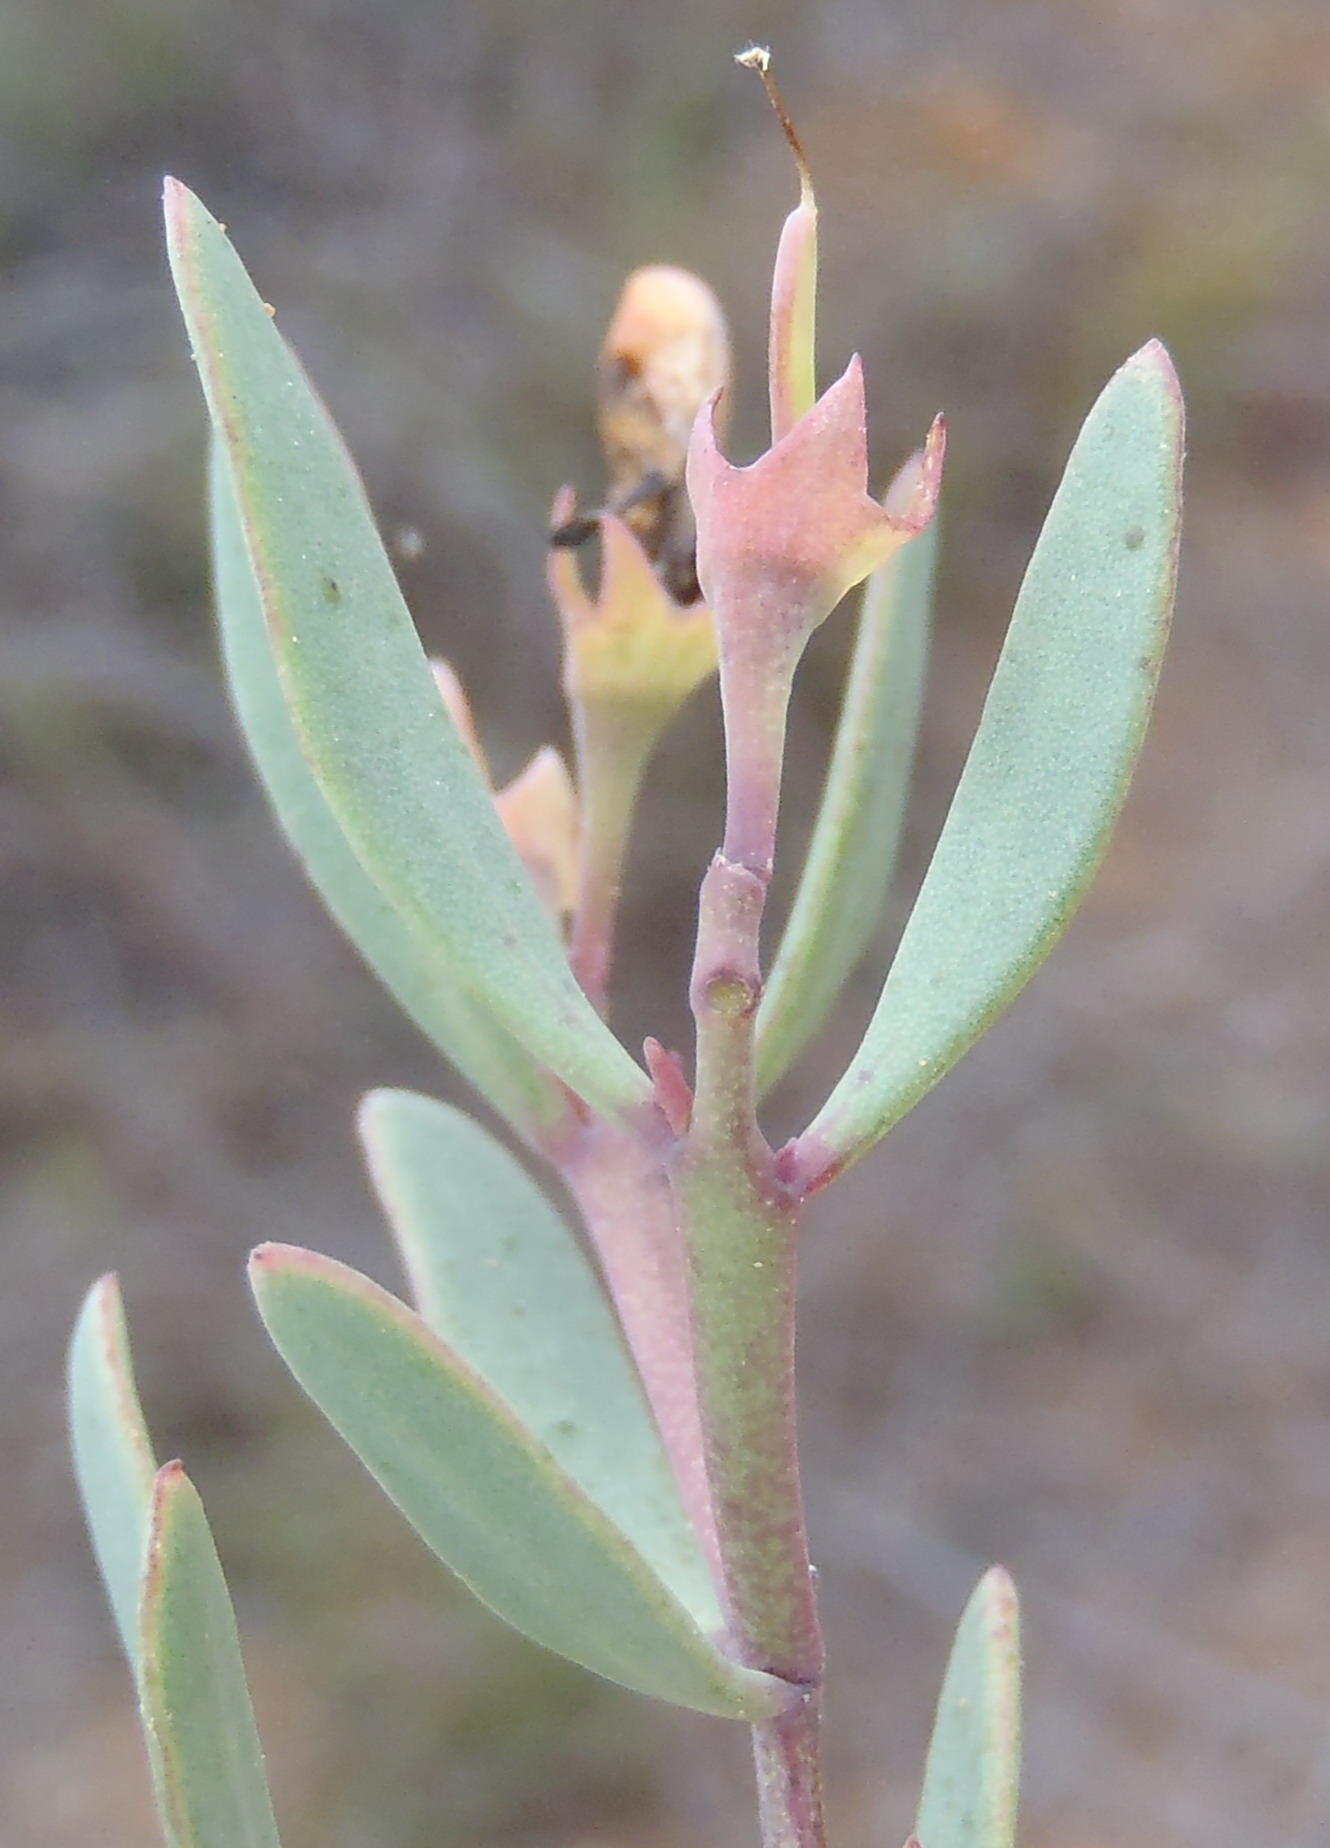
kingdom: Plantae
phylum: Tracheophyta
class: Magnoliopsida
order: Fabales
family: Fabaceae
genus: Rafnia
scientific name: Rafnia capensis
